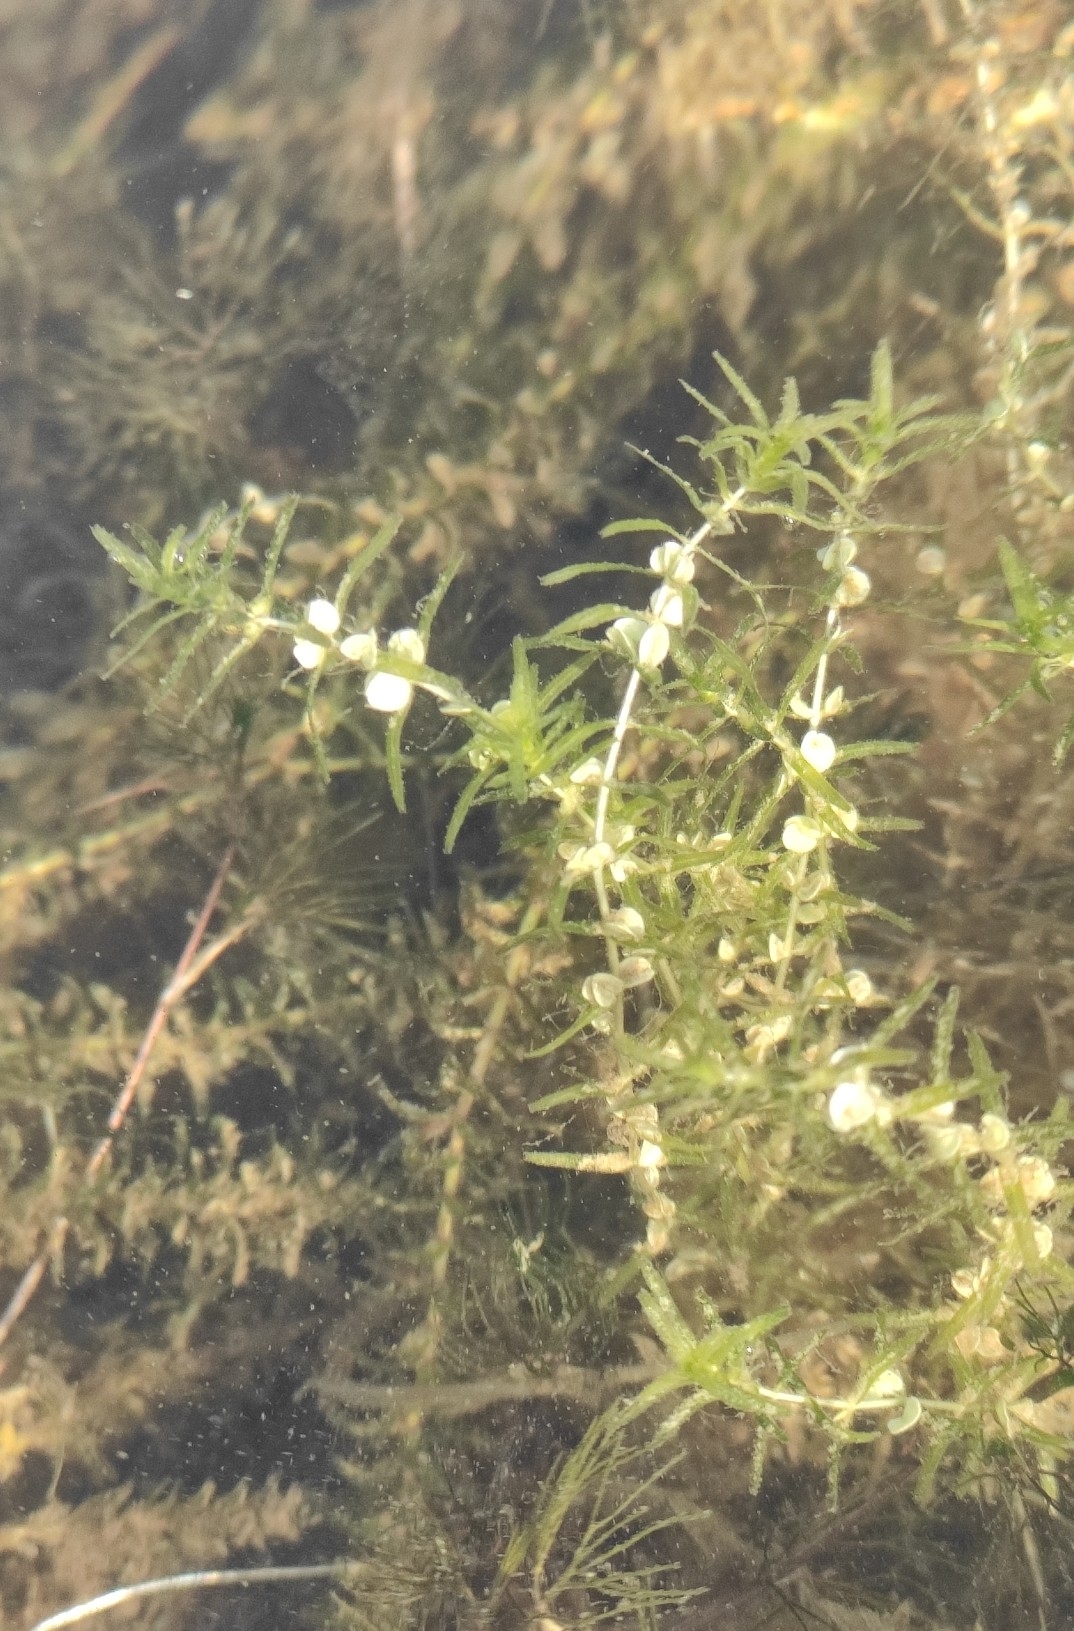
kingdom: Plantae
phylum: Tracheophyta
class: Magnoliopsida
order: Lamiales
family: Plantaginaceae
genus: Callitriche
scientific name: Callitriche hermaphroditica
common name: Autumnal water-starwort
